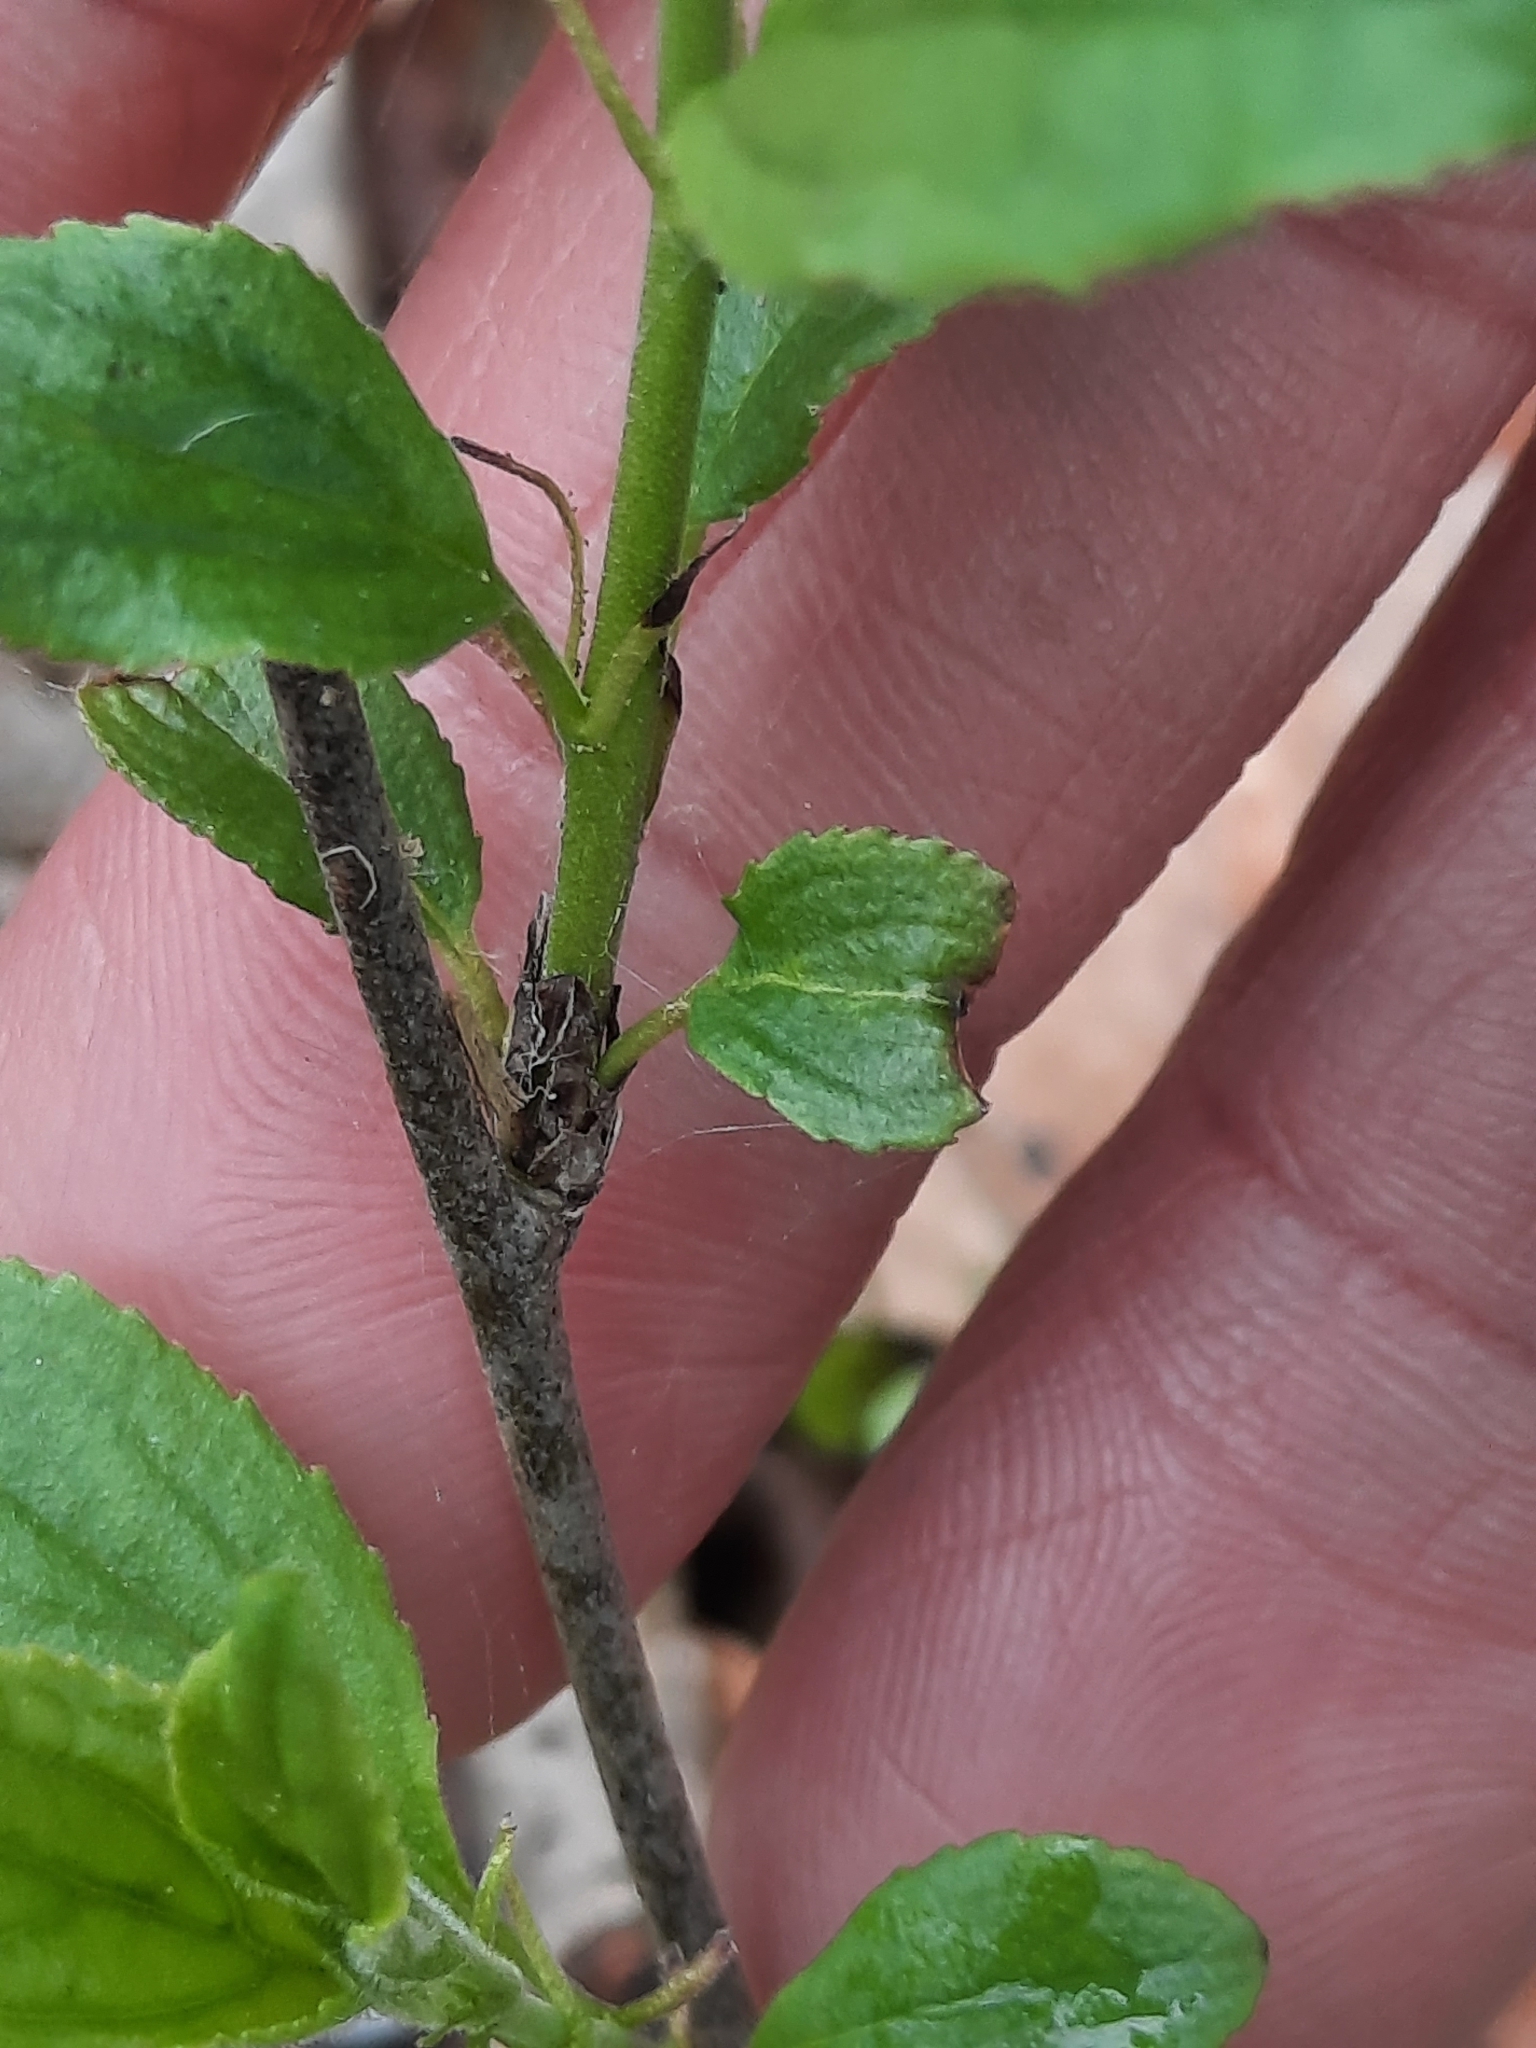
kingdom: Plantae
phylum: Tracheophyta
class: Magnoliopsida
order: Rosales
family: Rhamnaceae
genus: Rhamnus
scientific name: Rhamnus cathartica
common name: Common buckthorn
